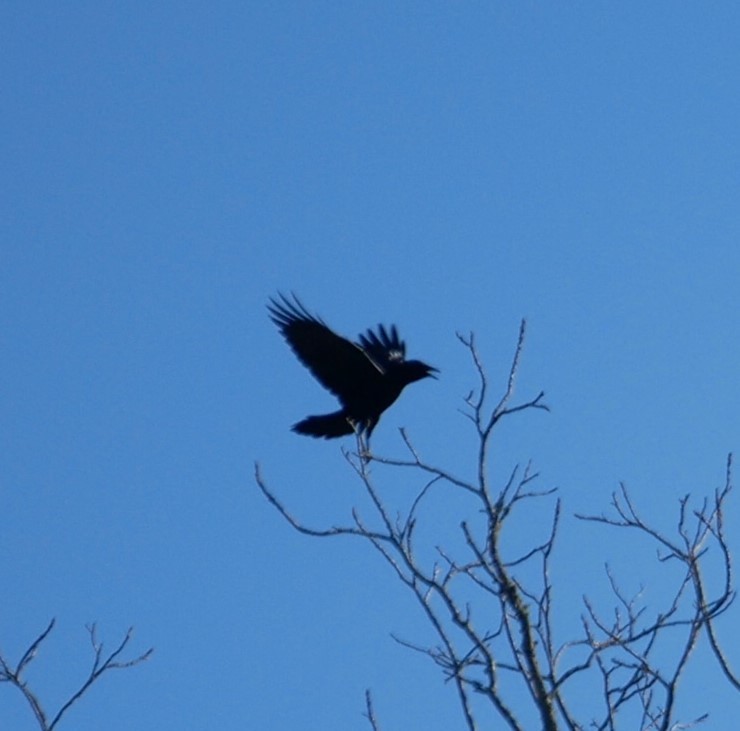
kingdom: Animalia
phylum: Chordata
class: Aves
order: Passeriformes
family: Corvidae
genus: Corvus
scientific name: Corvus brachyrhynchos
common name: American crow
